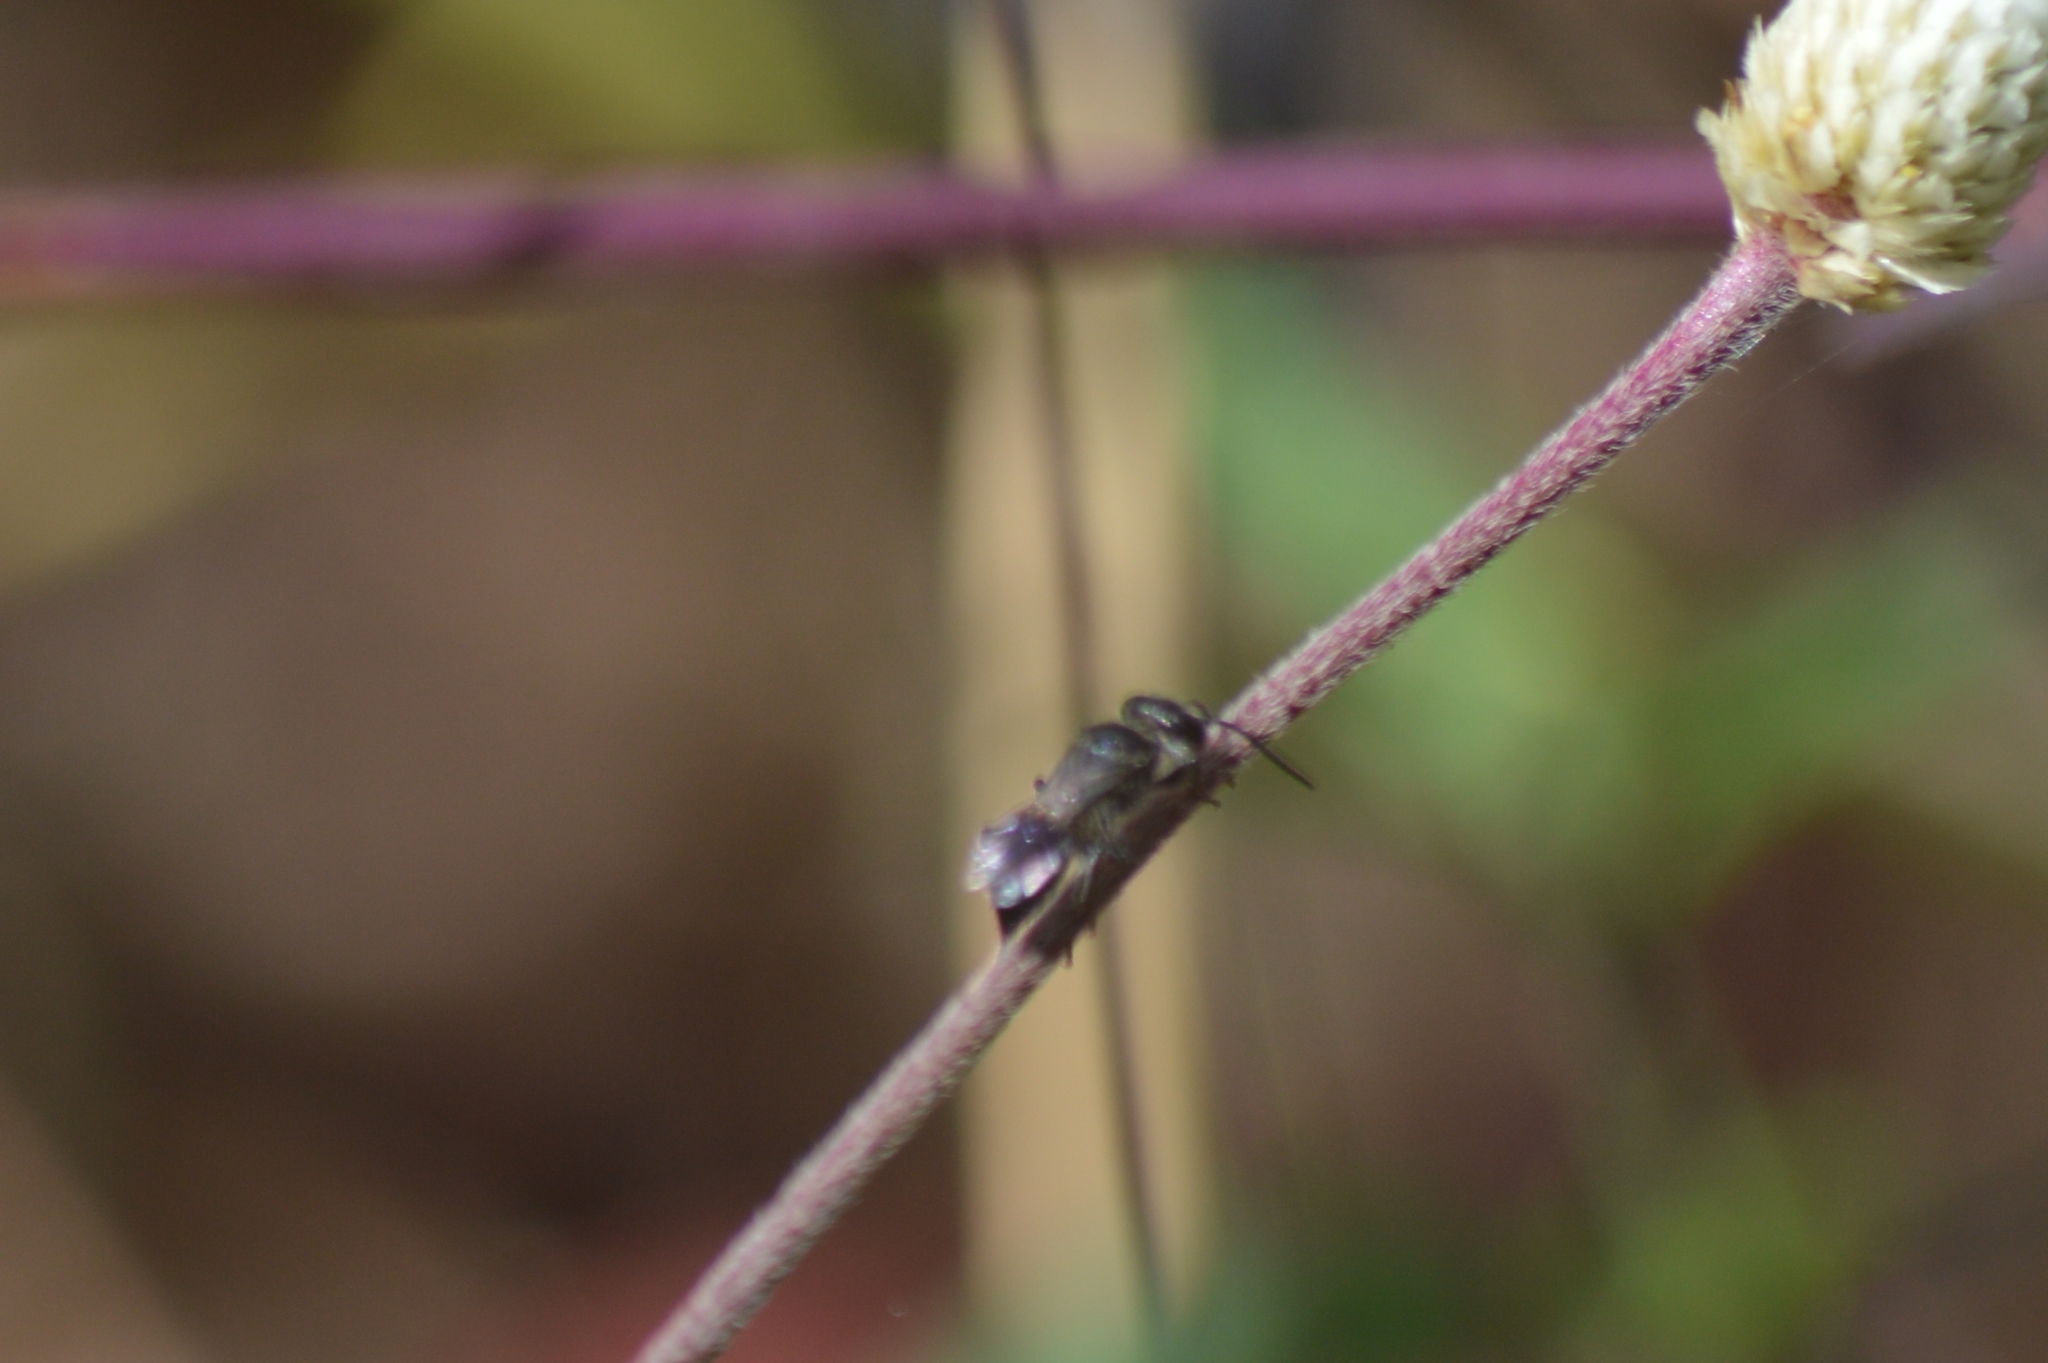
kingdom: Animalia
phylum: Arthropoda
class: Insecta
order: Hymenoptera
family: Crabronidae
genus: Astata
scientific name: Astata
